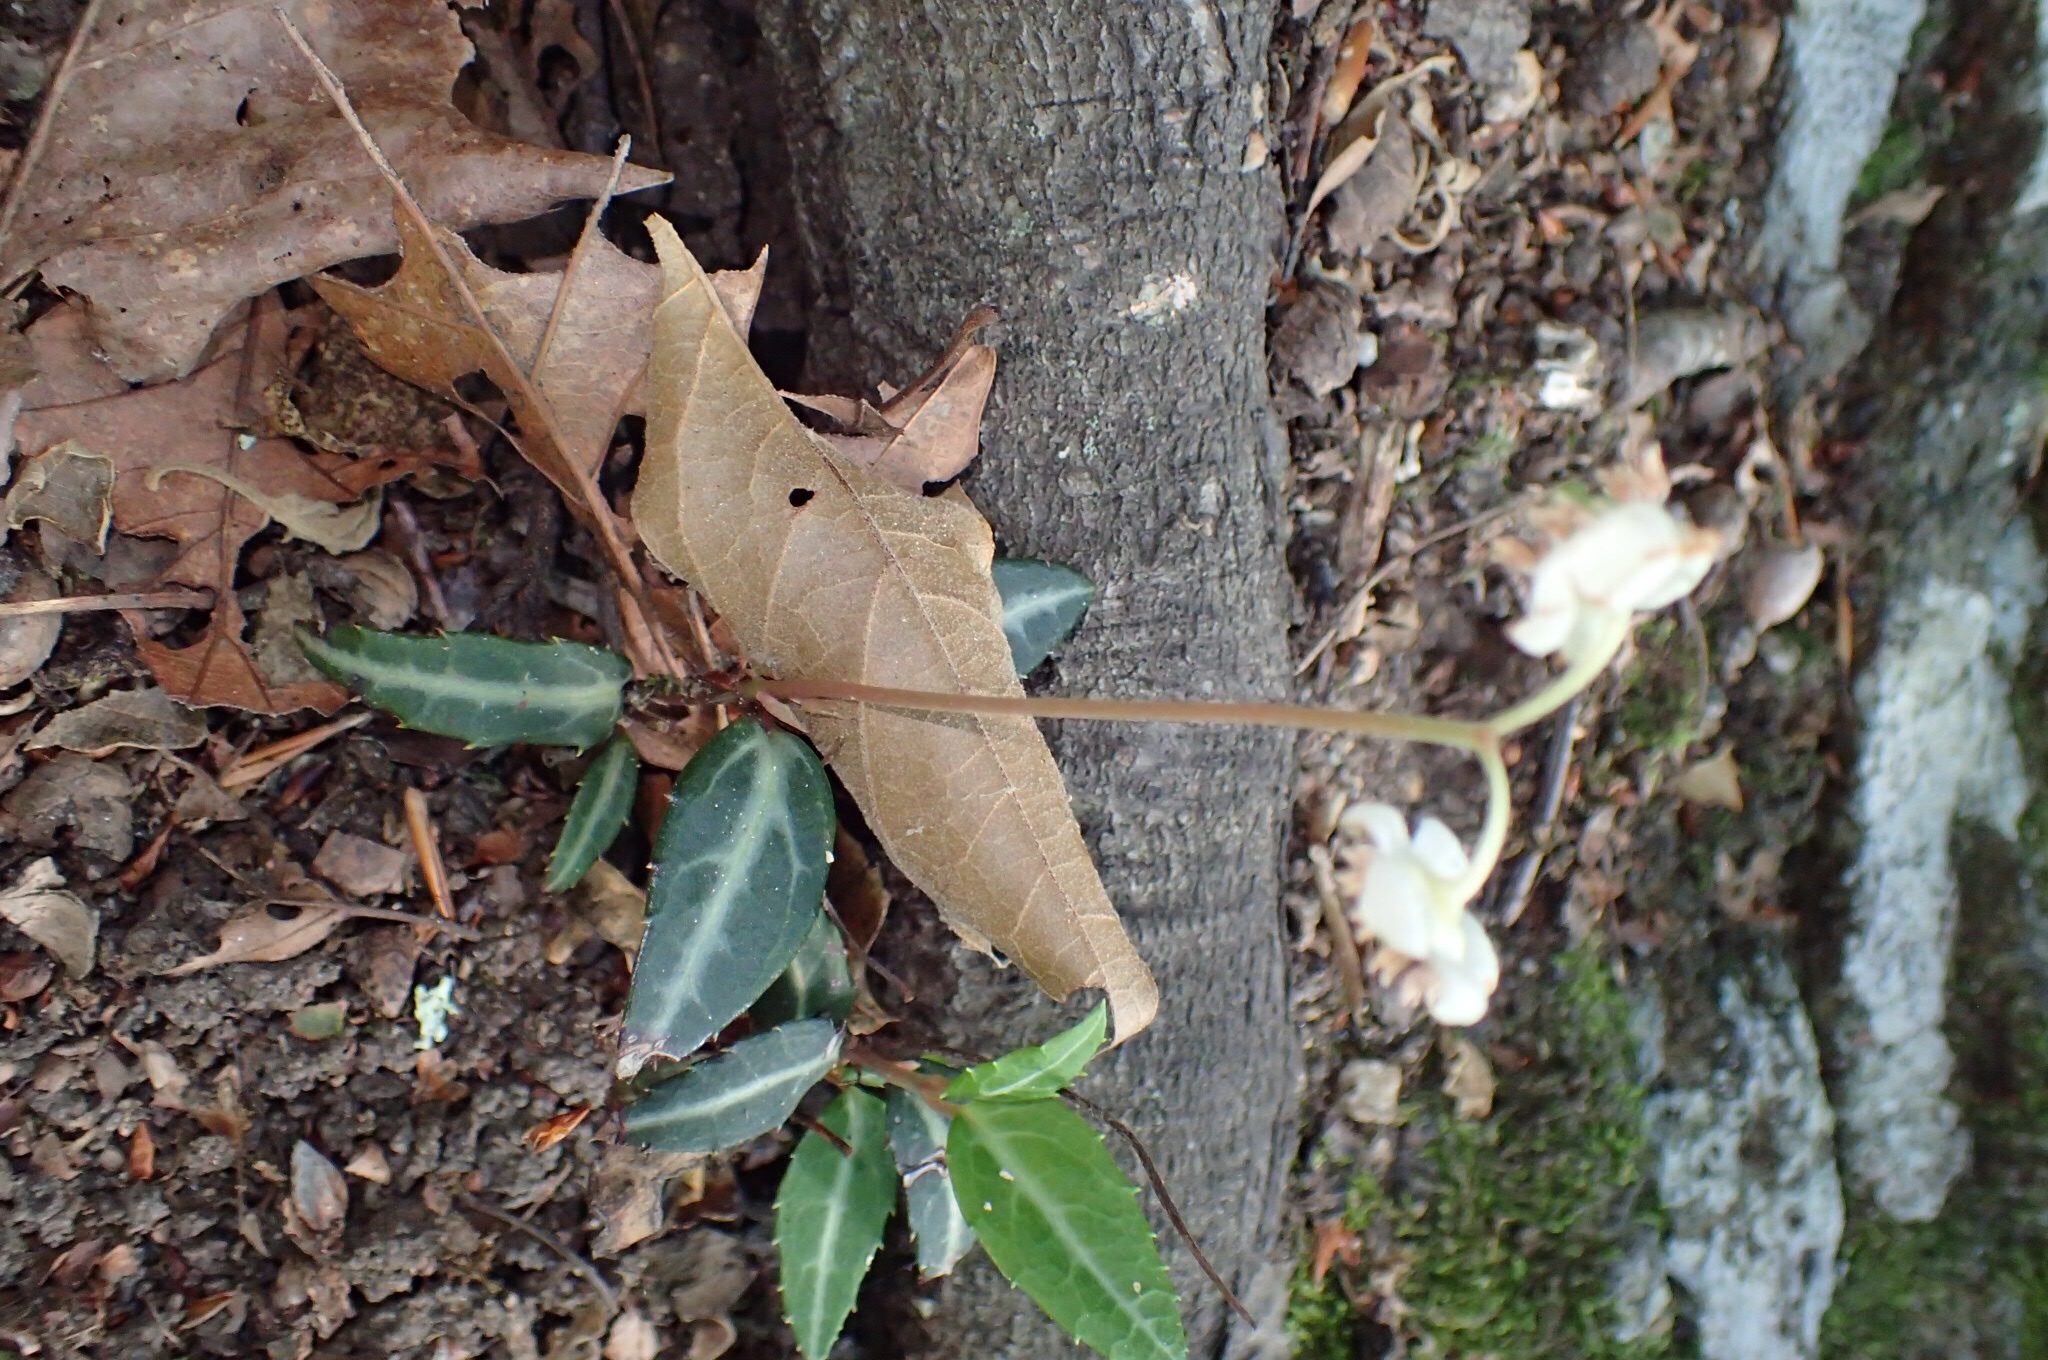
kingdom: Plantae
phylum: Tracheophyta
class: Magnoliopsida
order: Ericales
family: Ericaceae
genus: Chimaphila
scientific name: Chimaphila maculata
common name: Spotted pipsissewa
